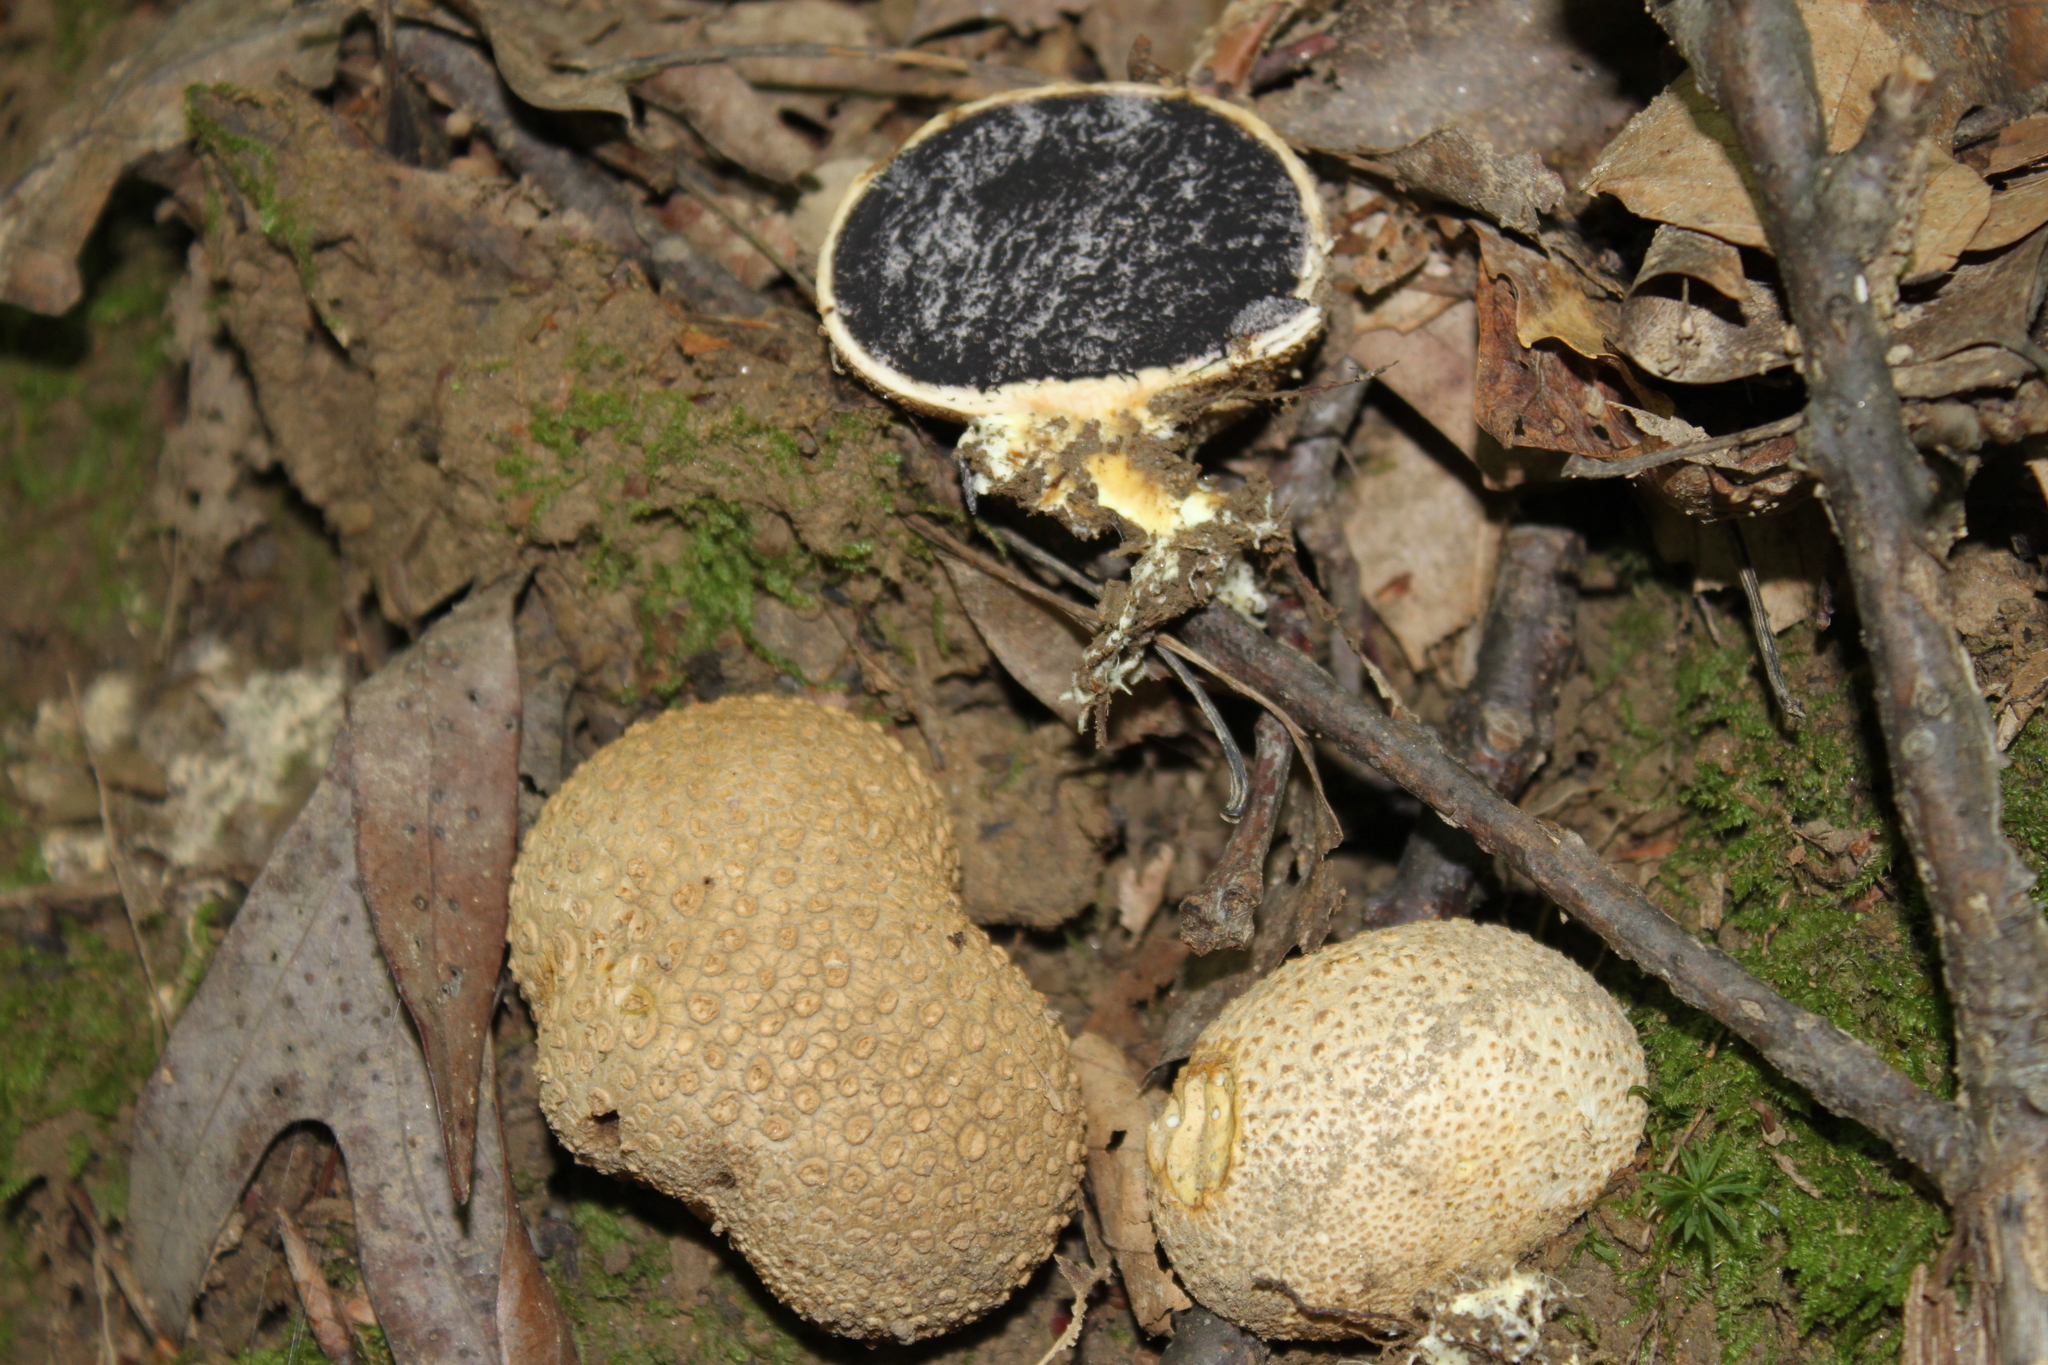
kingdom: Fungi
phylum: Basidiomycota
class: Agaricomycetes
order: Boletales
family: Sclerodermataceae
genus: Scleroderma
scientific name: Scleroderma citrinum
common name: Common earthball
